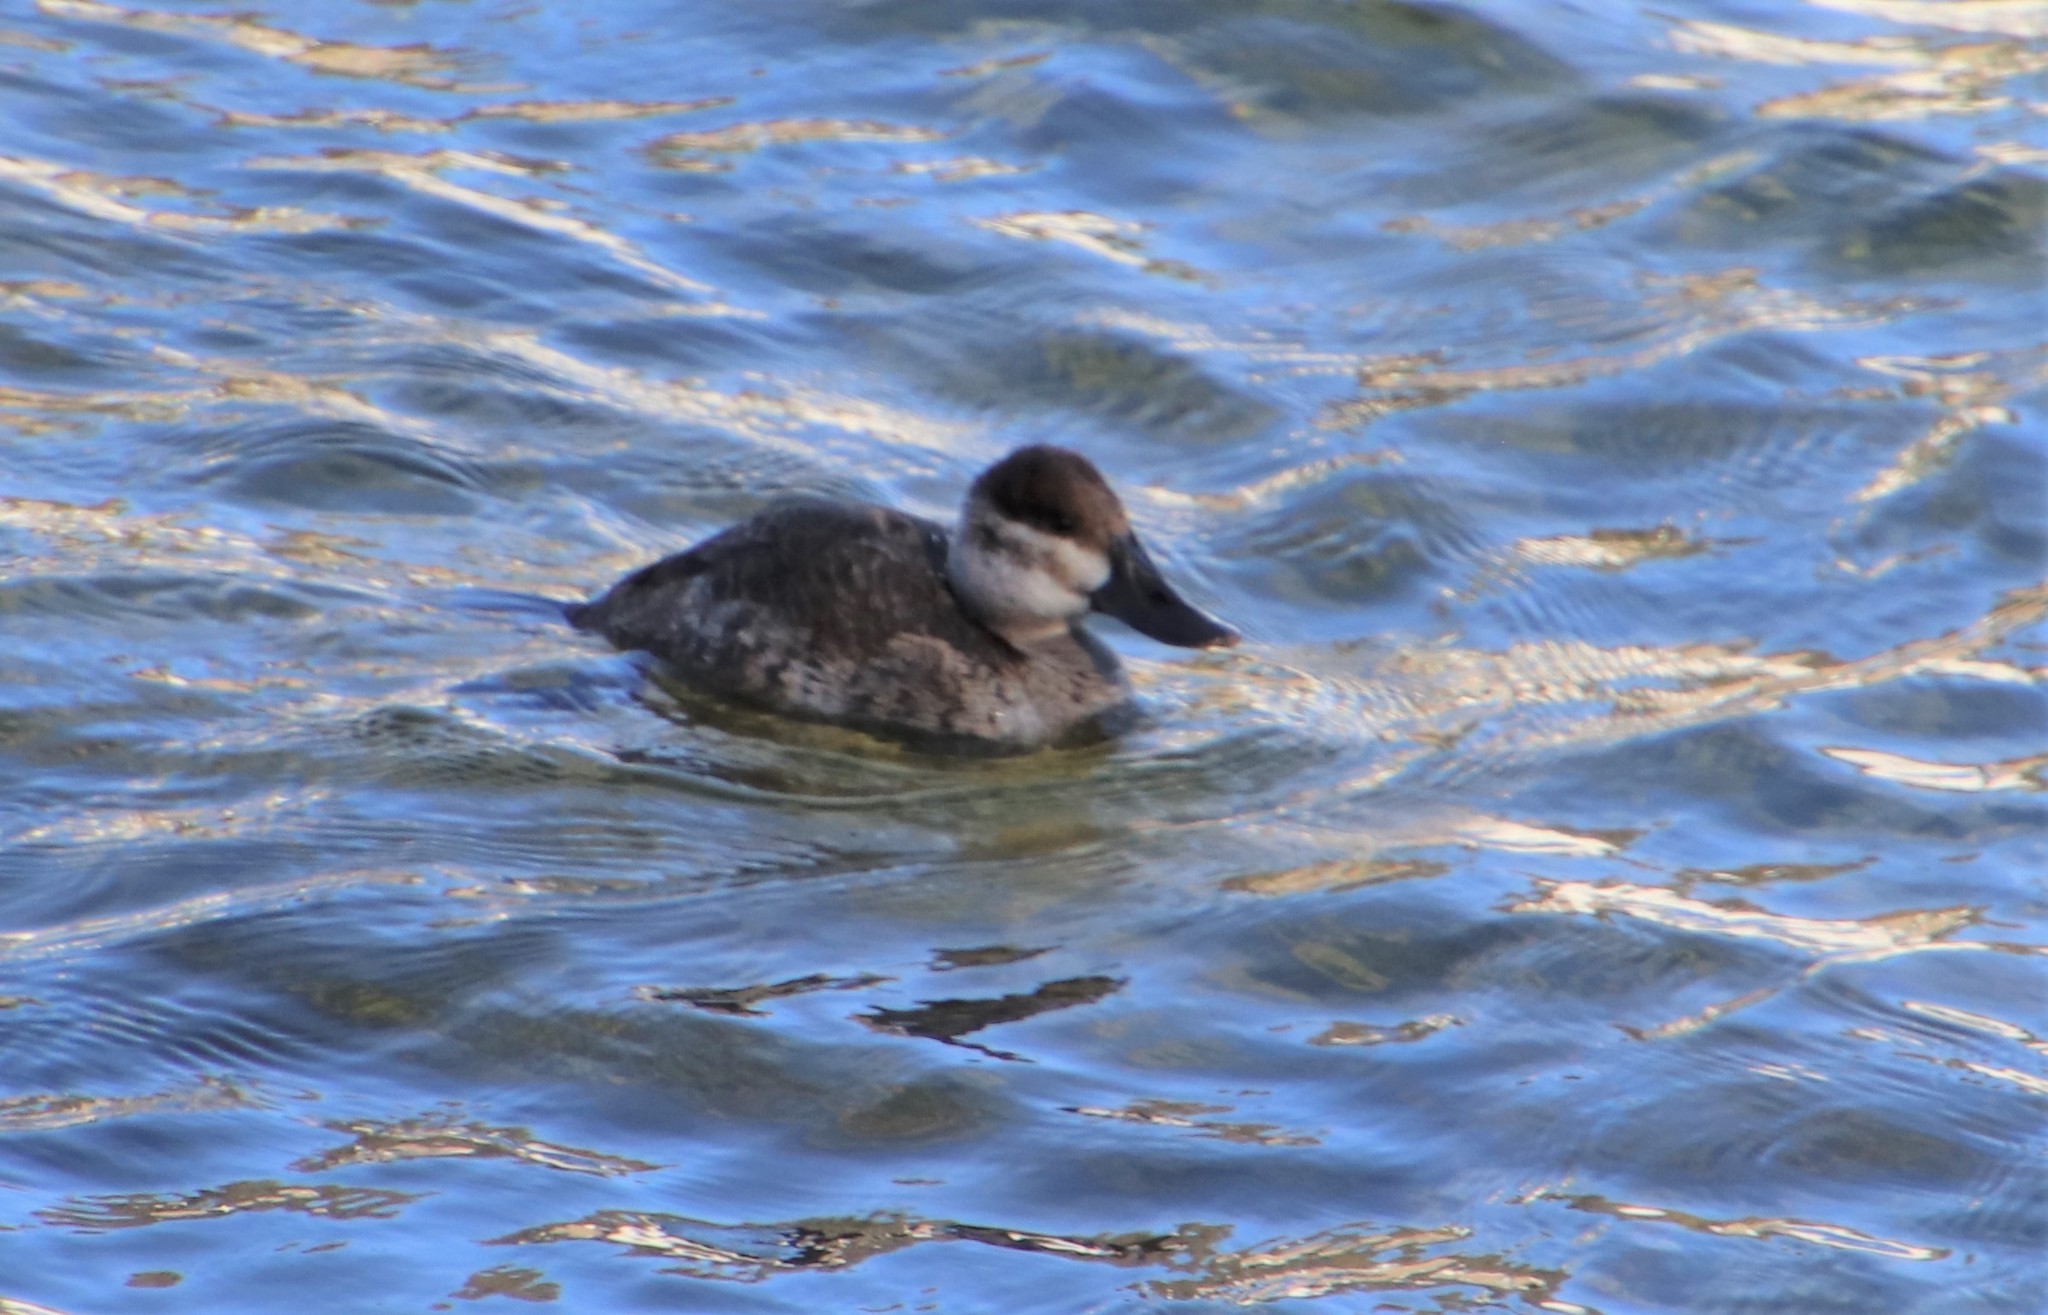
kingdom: Animalia
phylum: Chordata
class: Aves
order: Anseriformes
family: Anatidae
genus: Oxyura
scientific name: Oxyura jamaicensis
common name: Ruddy duck
